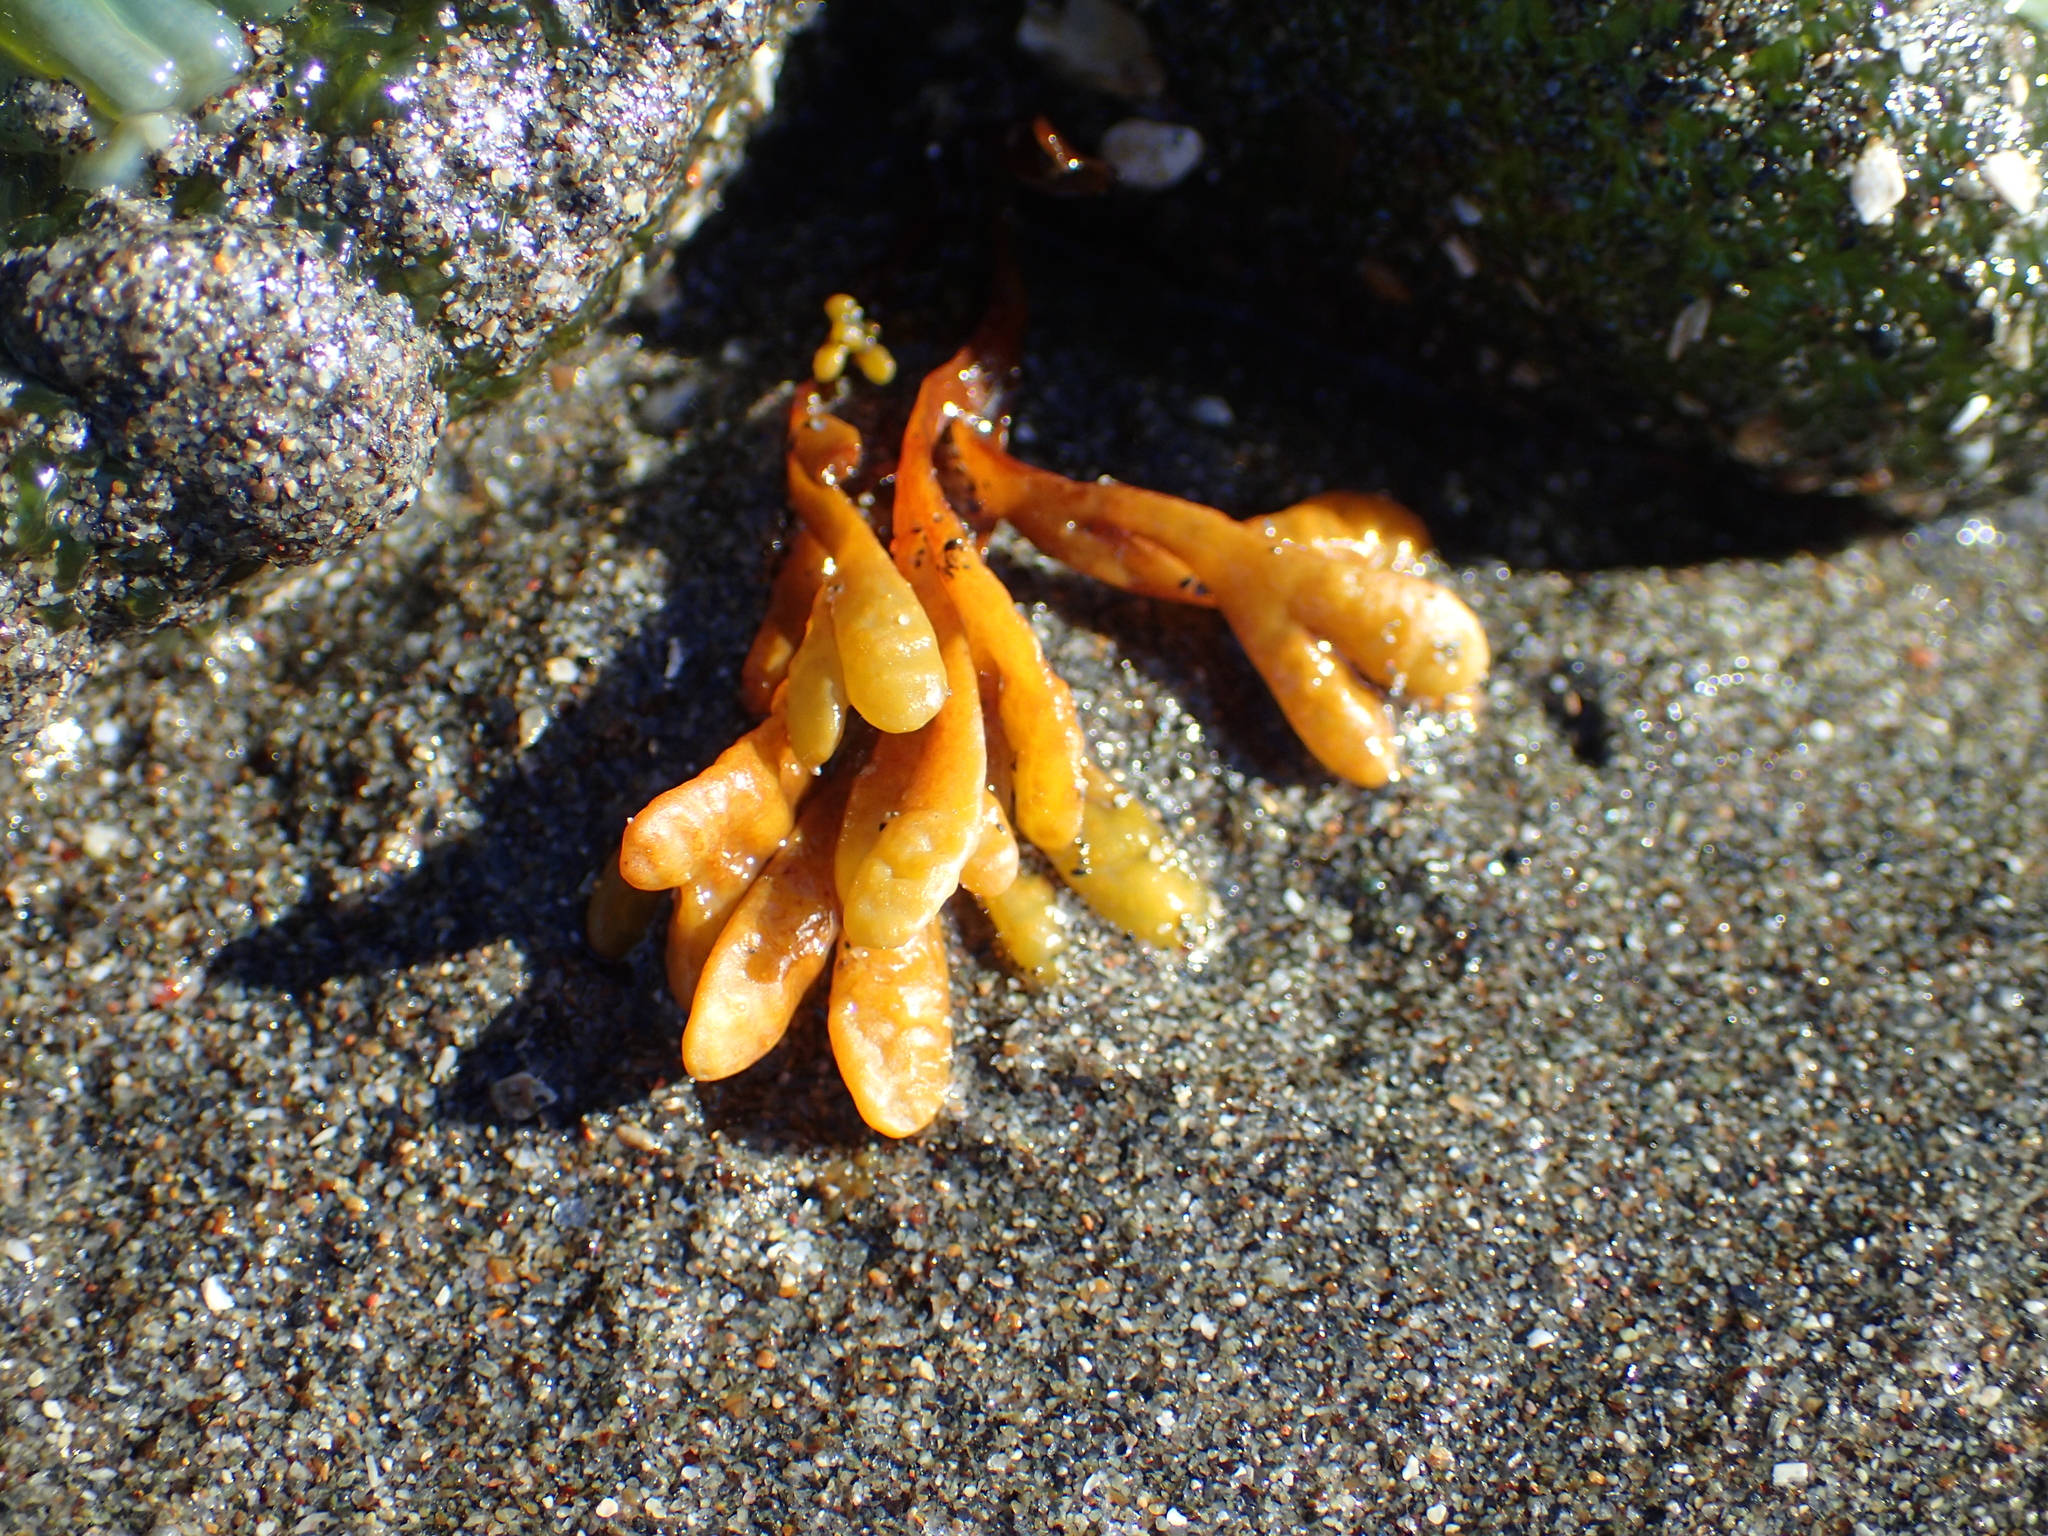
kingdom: Chromista
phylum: Ochrophyta
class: Phaeophyceae
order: Fucales
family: Fucaceae
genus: Fucus
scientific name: Fucus distichus
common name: Rockweed
